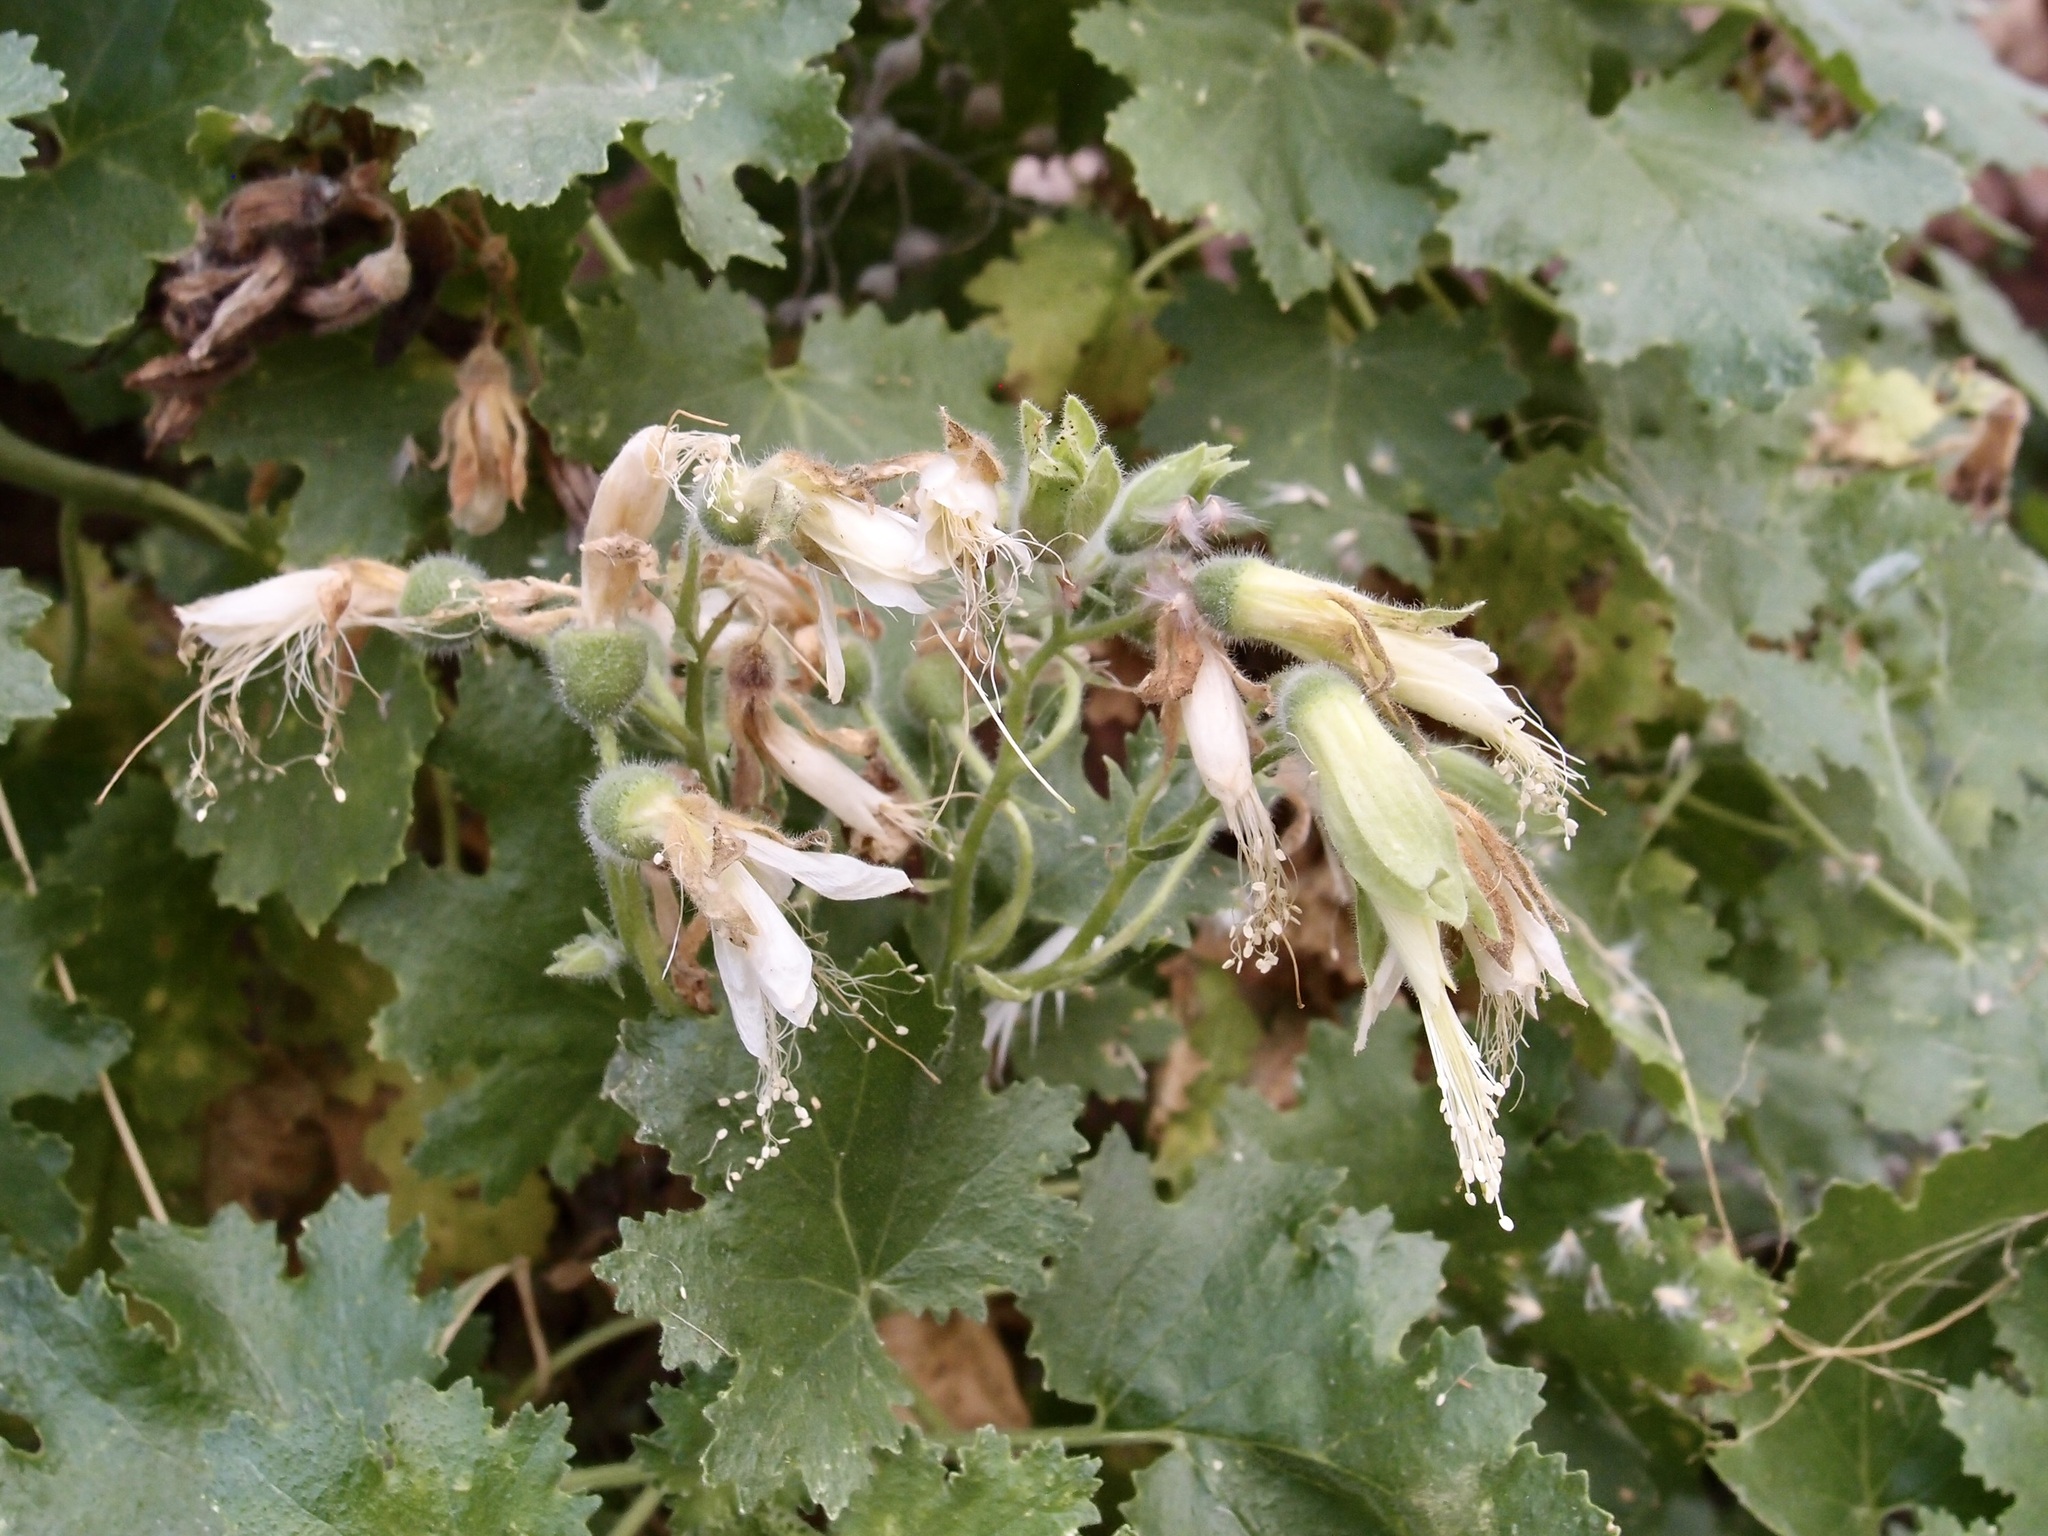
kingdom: Plantae
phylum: Tracheophyta
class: Magnoliopsida
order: Cornales
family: Loasaceae
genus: Eucnide
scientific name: Eucnide cordata
